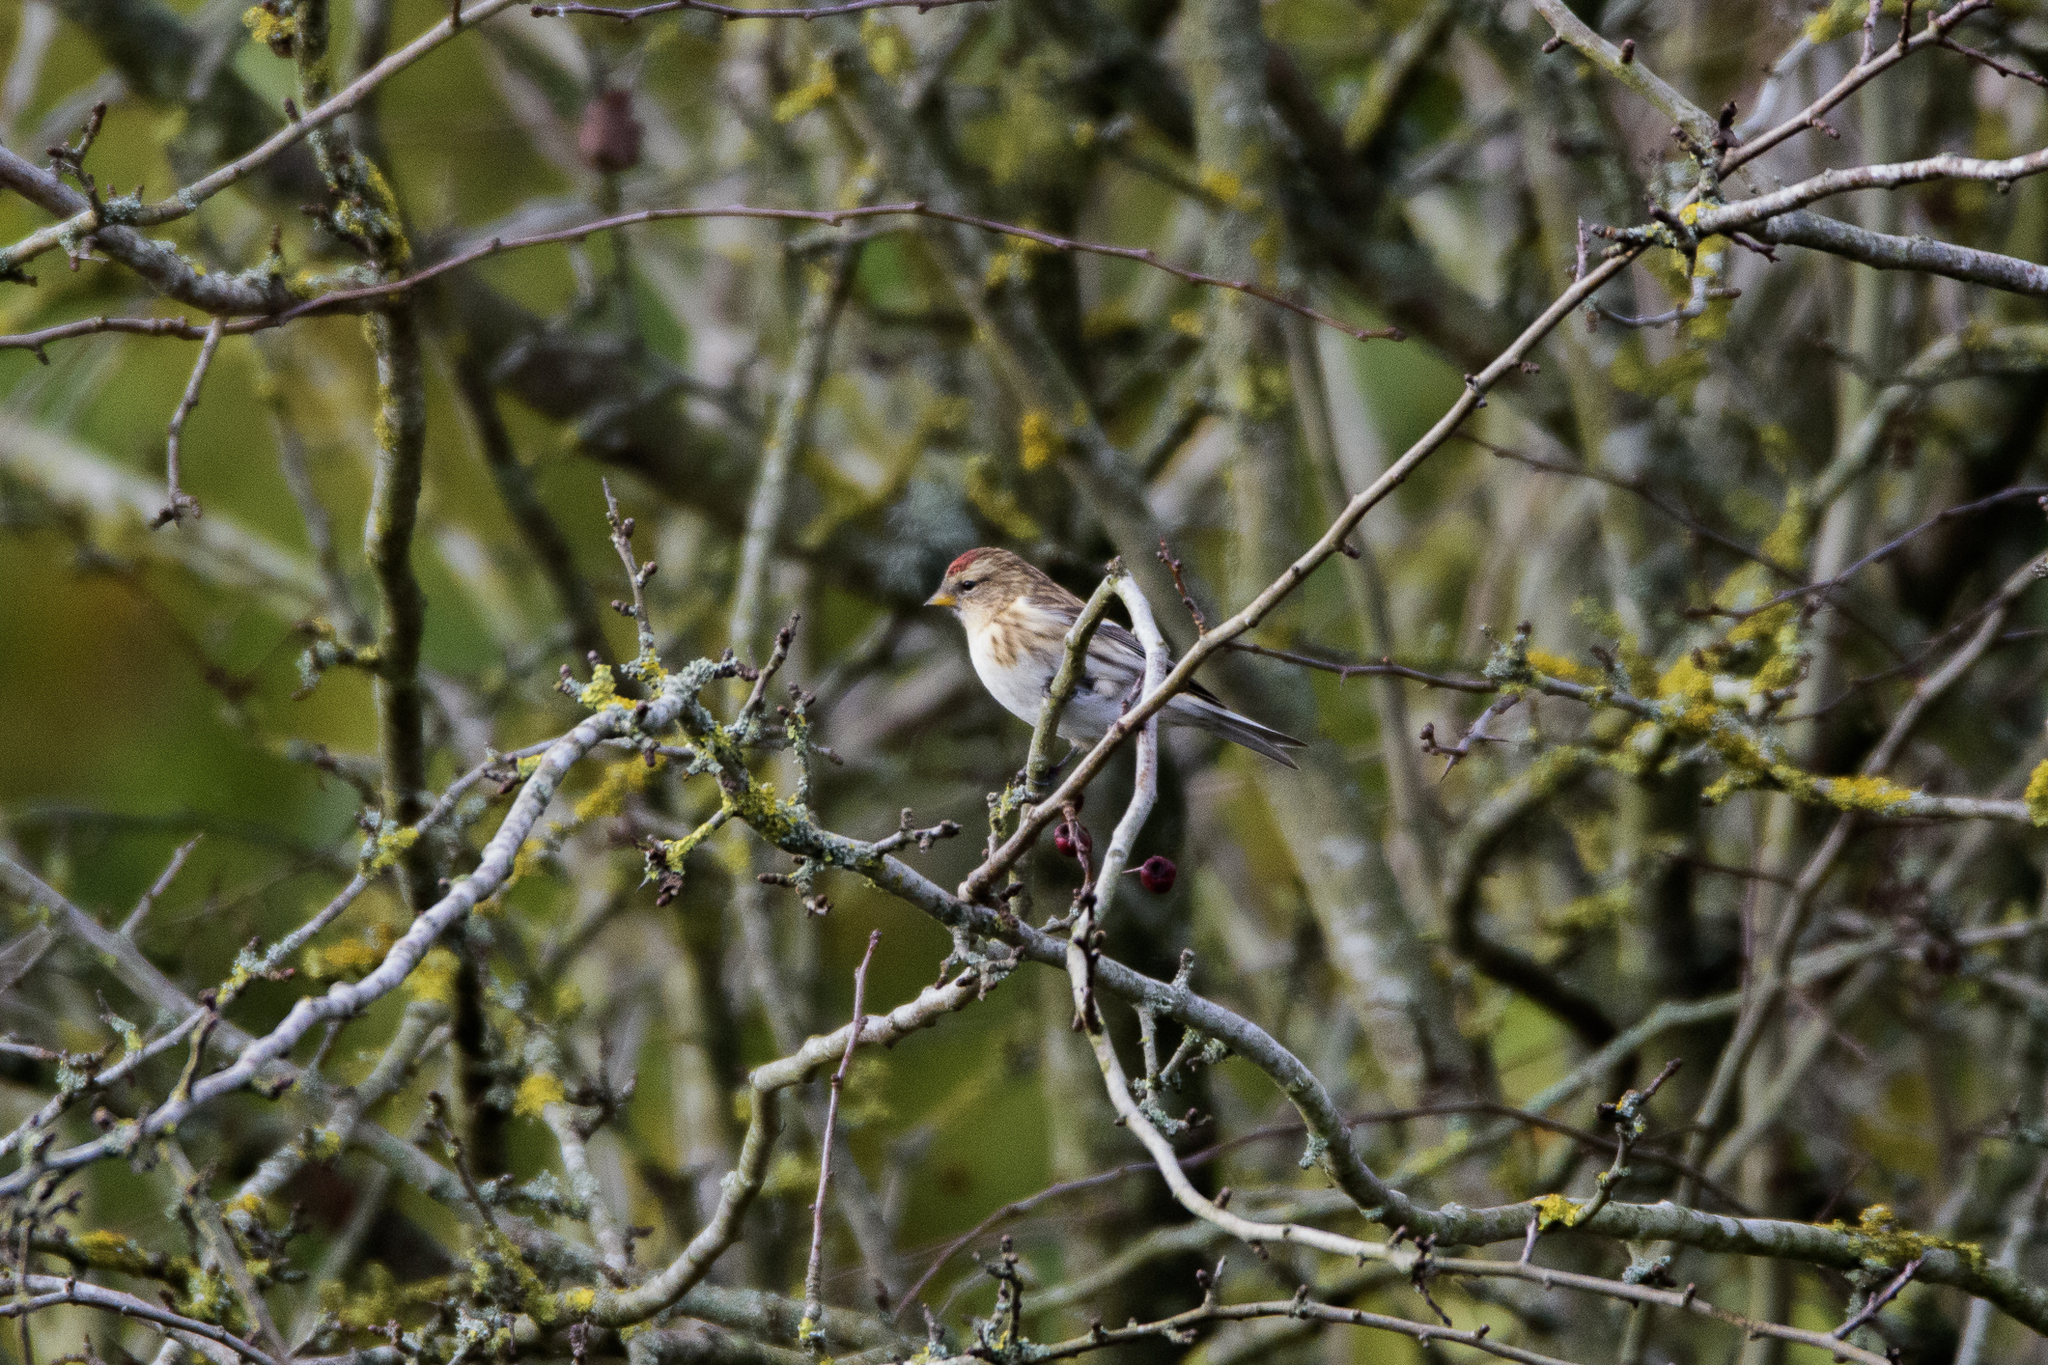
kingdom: Animalia
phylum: Chordata
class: Aves
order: Passeriformes
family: Fringillidae
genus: Acanthis
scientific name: Acanthis flammea
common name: Common redpoll
